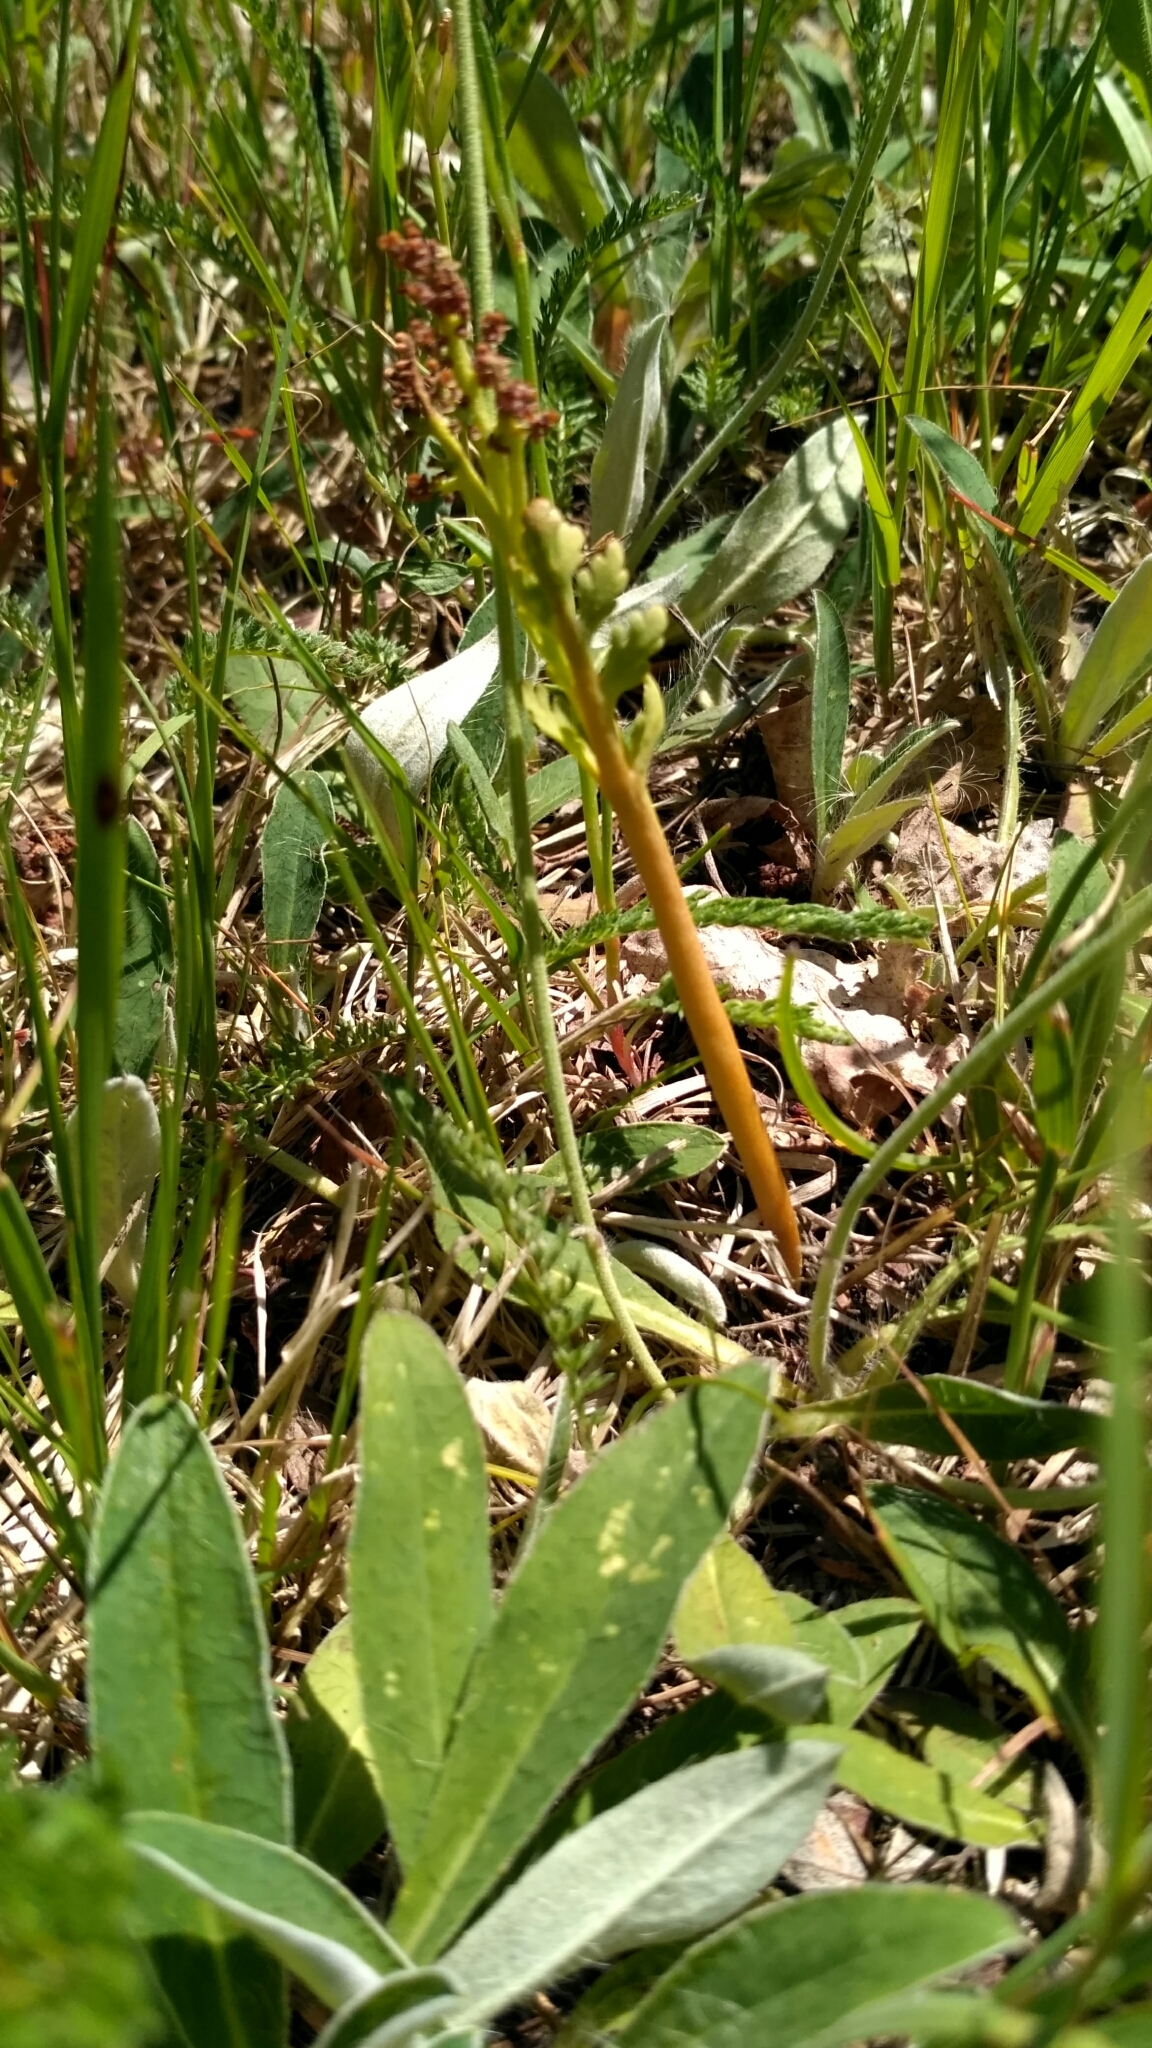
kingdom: Plantae
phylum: Tracheophyta
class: Polypodiopsida
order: Ophioglossales
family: Ophioglossaceae
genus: Botrychium
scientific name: Botrychium matricariifolium
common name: Branched moonwort
